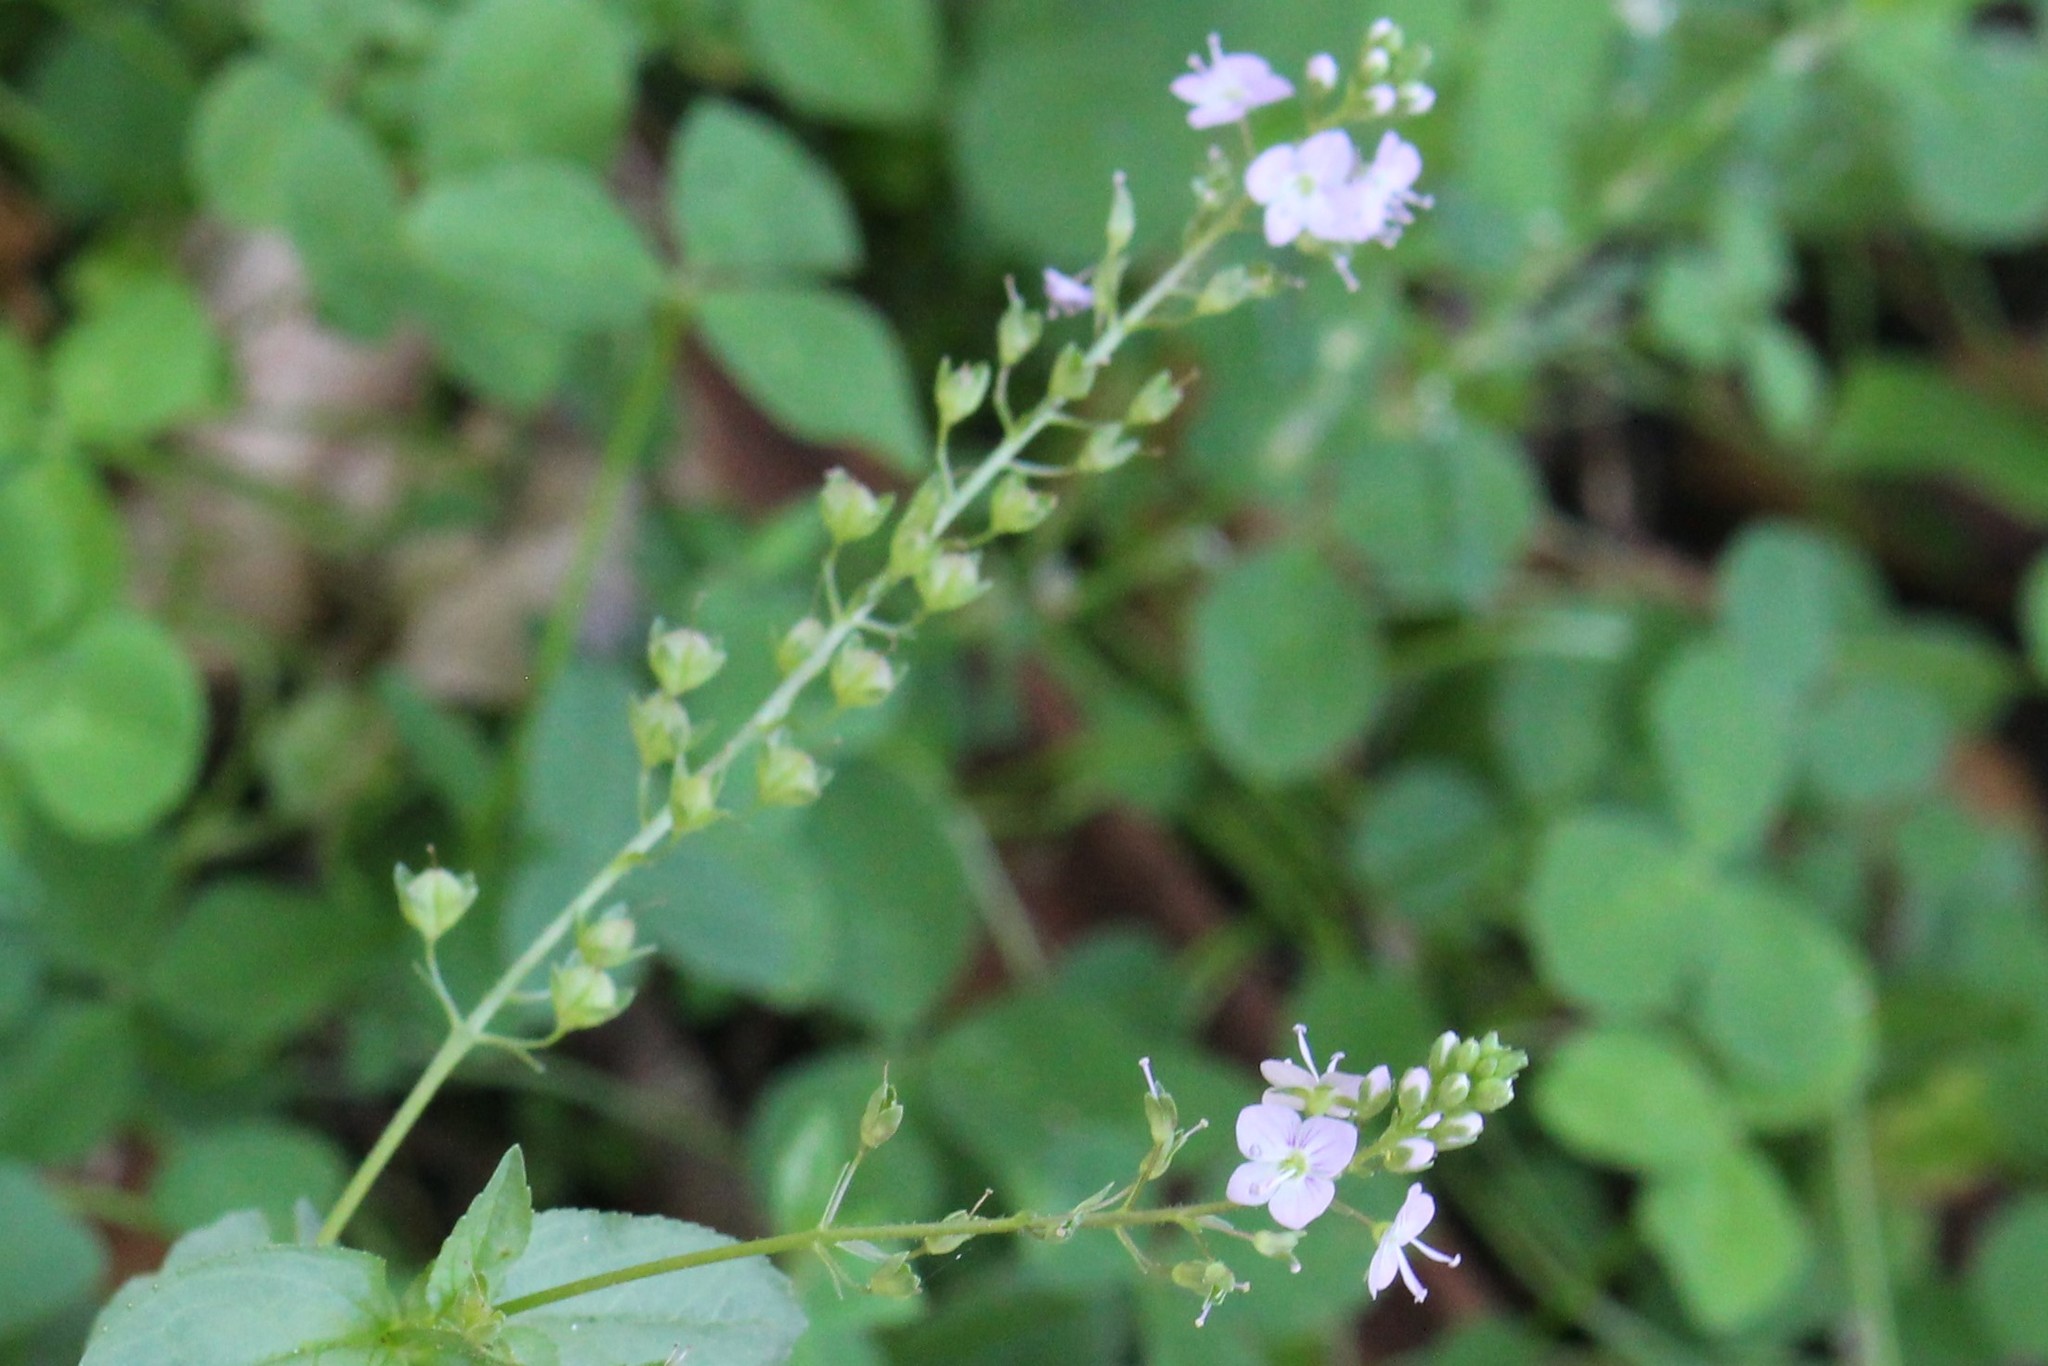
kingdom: Plantae
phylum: Tracheophyta
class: Magnoliopsida
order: Lamiales
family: Plantaginaceae
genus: Veronica
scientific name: Veronica anagallis-aquatica
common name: Water speedwell
